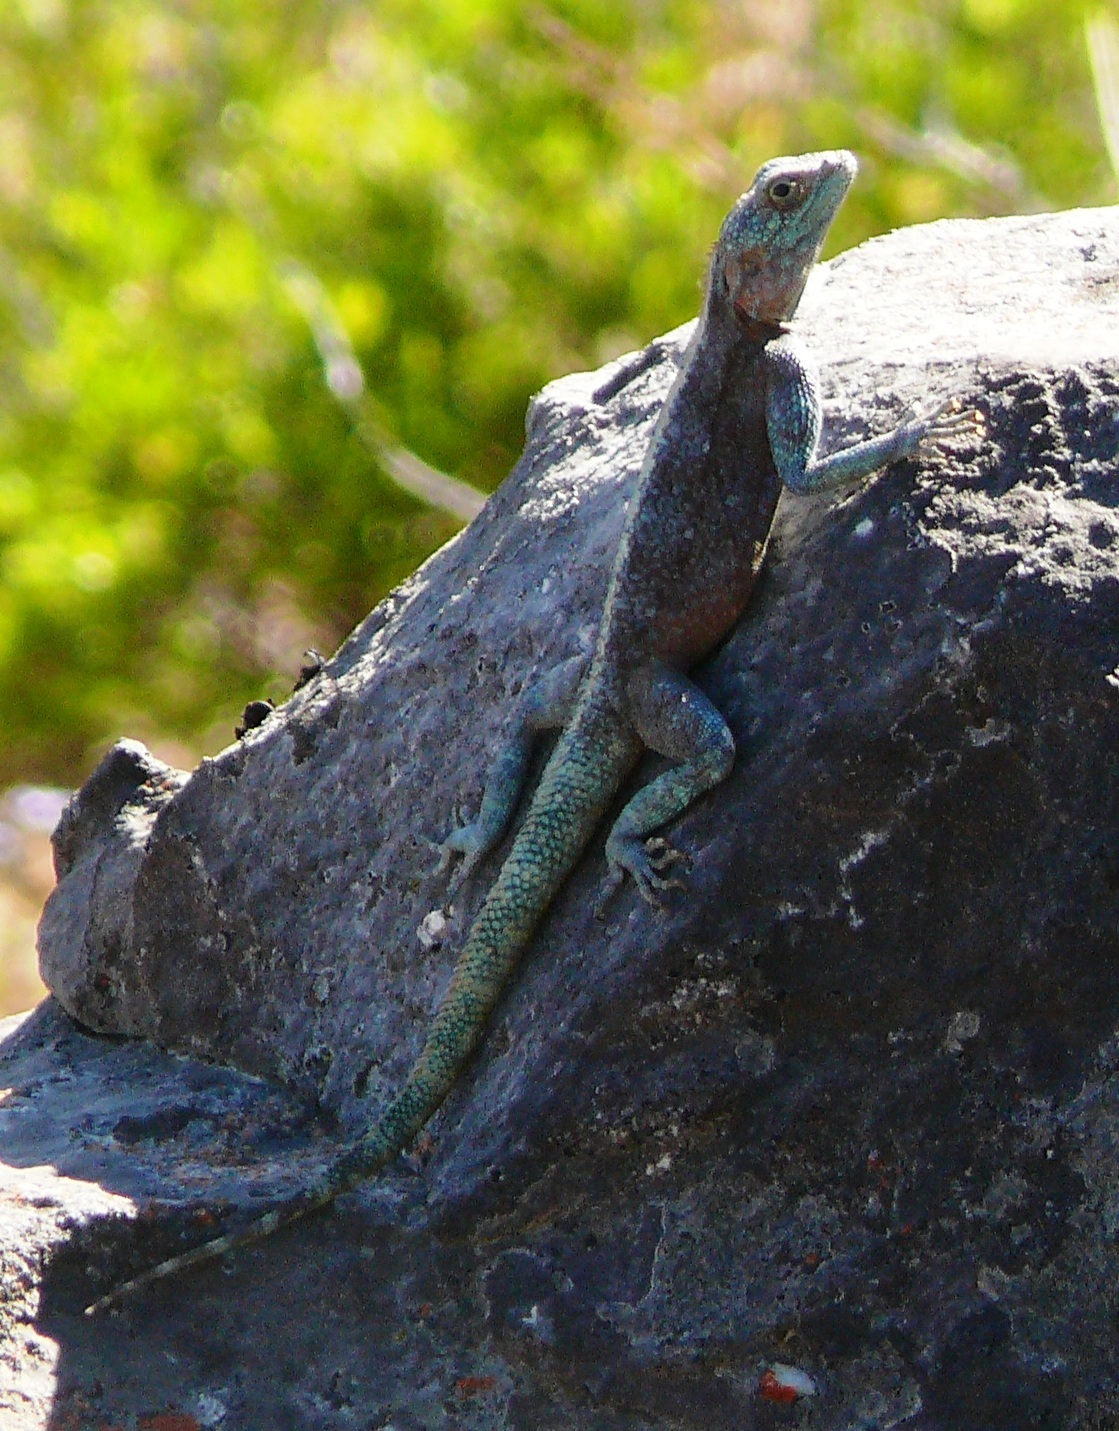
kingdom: Animalia
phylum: Chordata
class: Squamata
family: Agamidae
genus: Agama
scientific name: Agama atra
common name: Southern african rock agama
